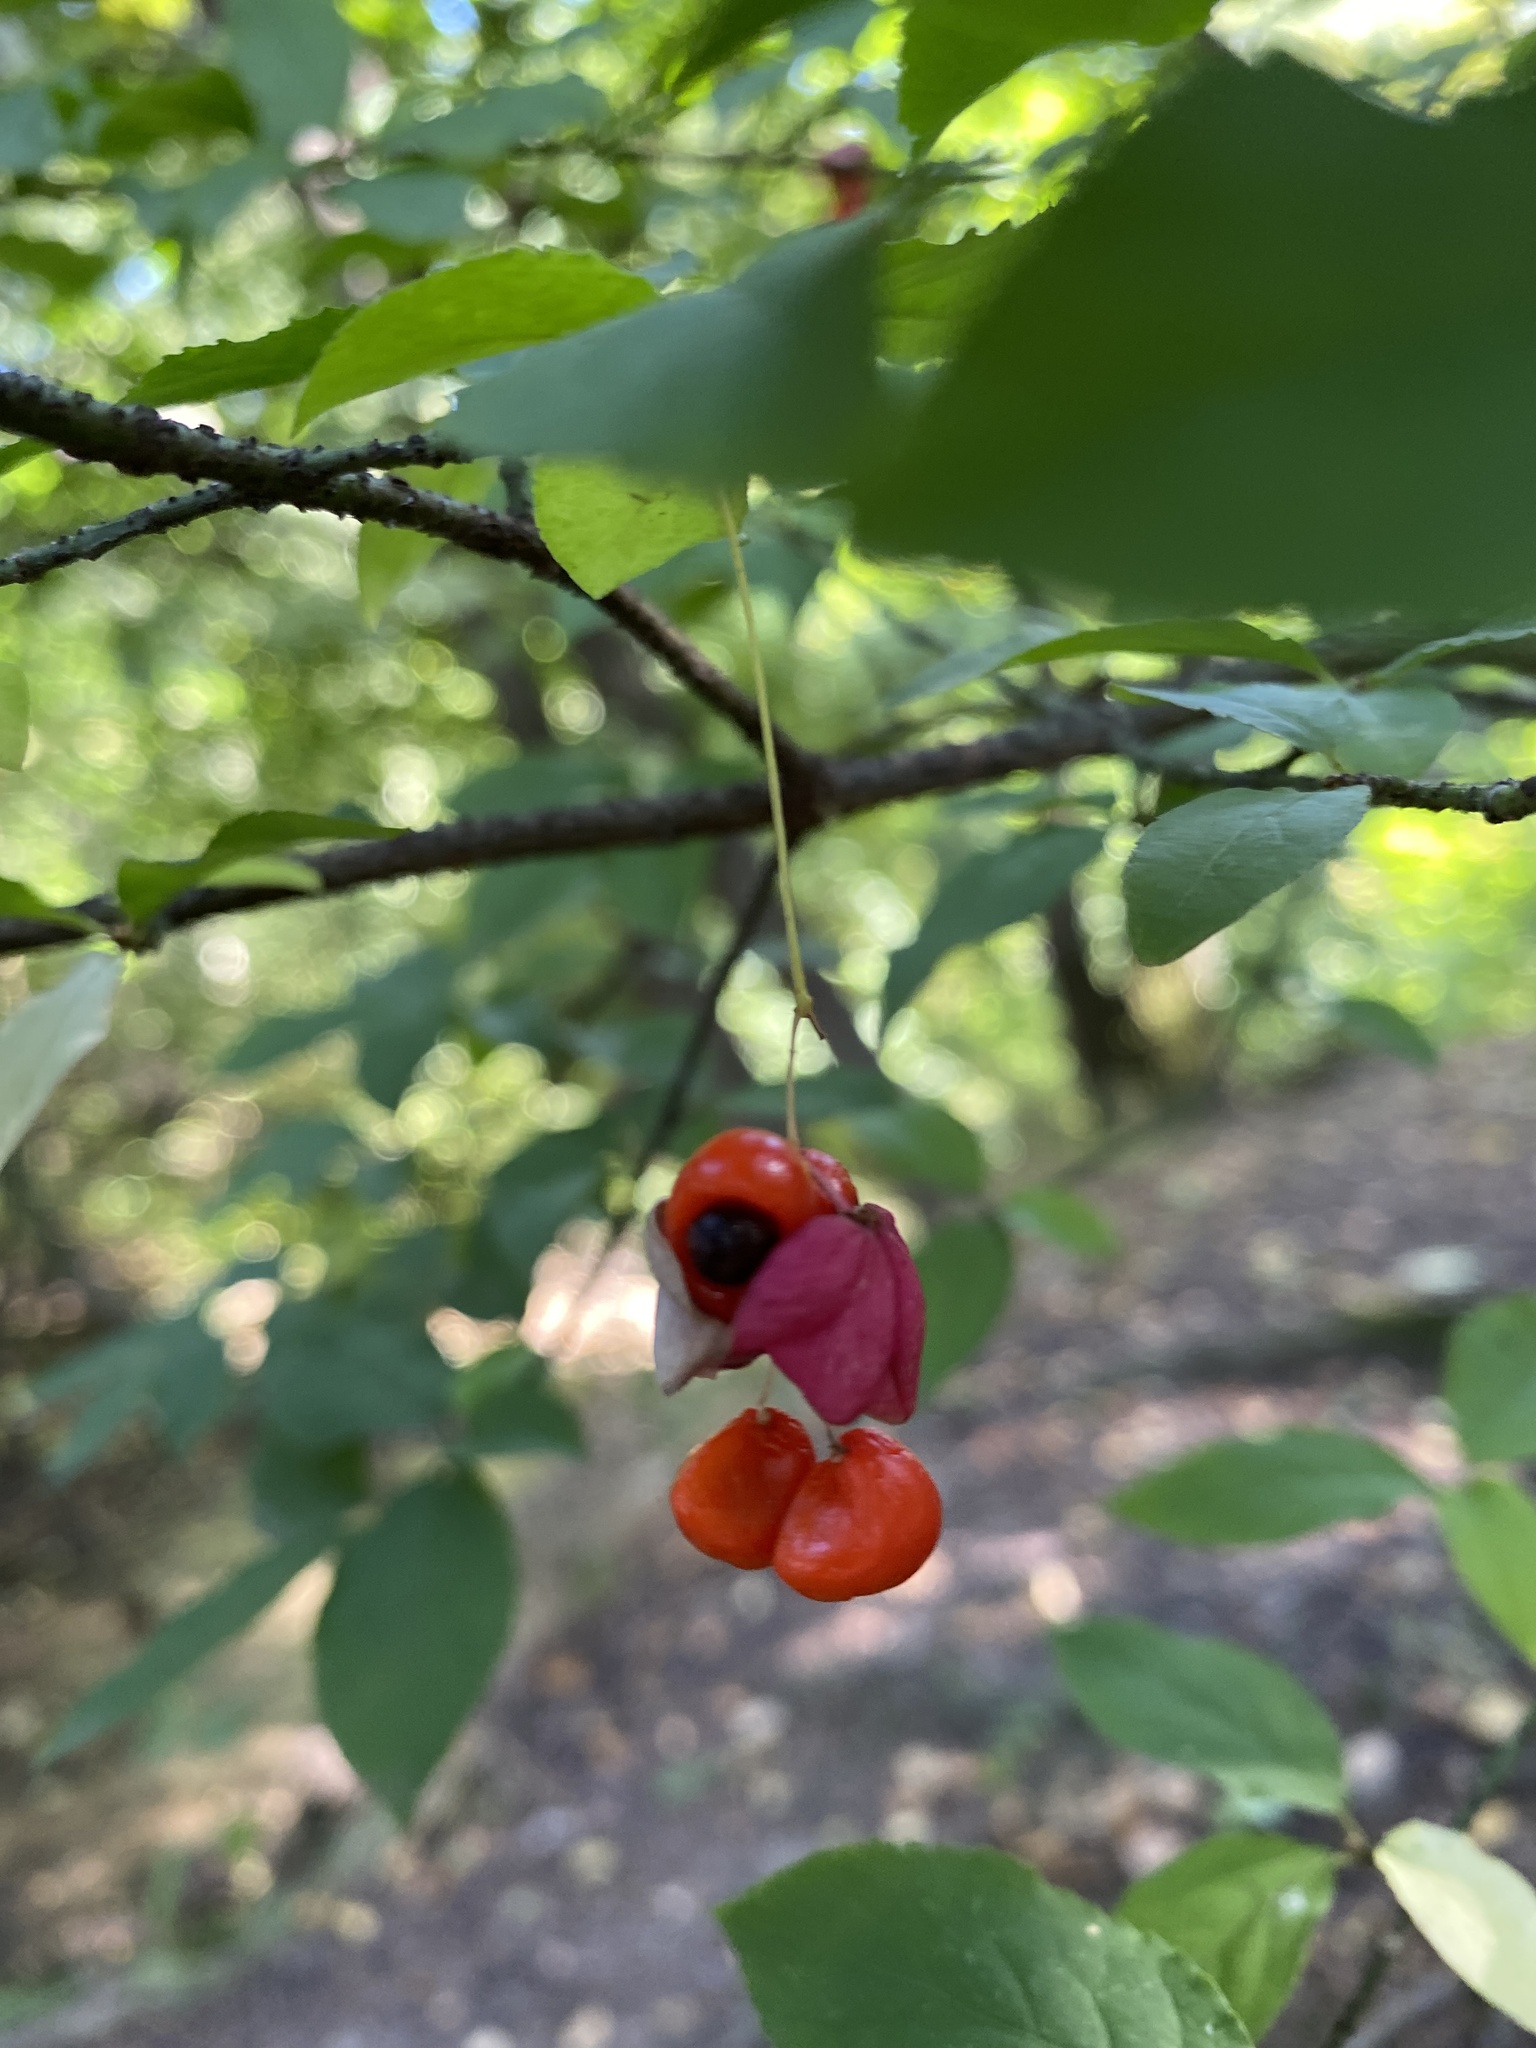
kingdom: Plantae
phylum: Tracheophyta
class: Magnoliopsida
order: Celastrales
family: Celastraceae
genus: Euonymus
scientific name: Euonymus verrucosus
